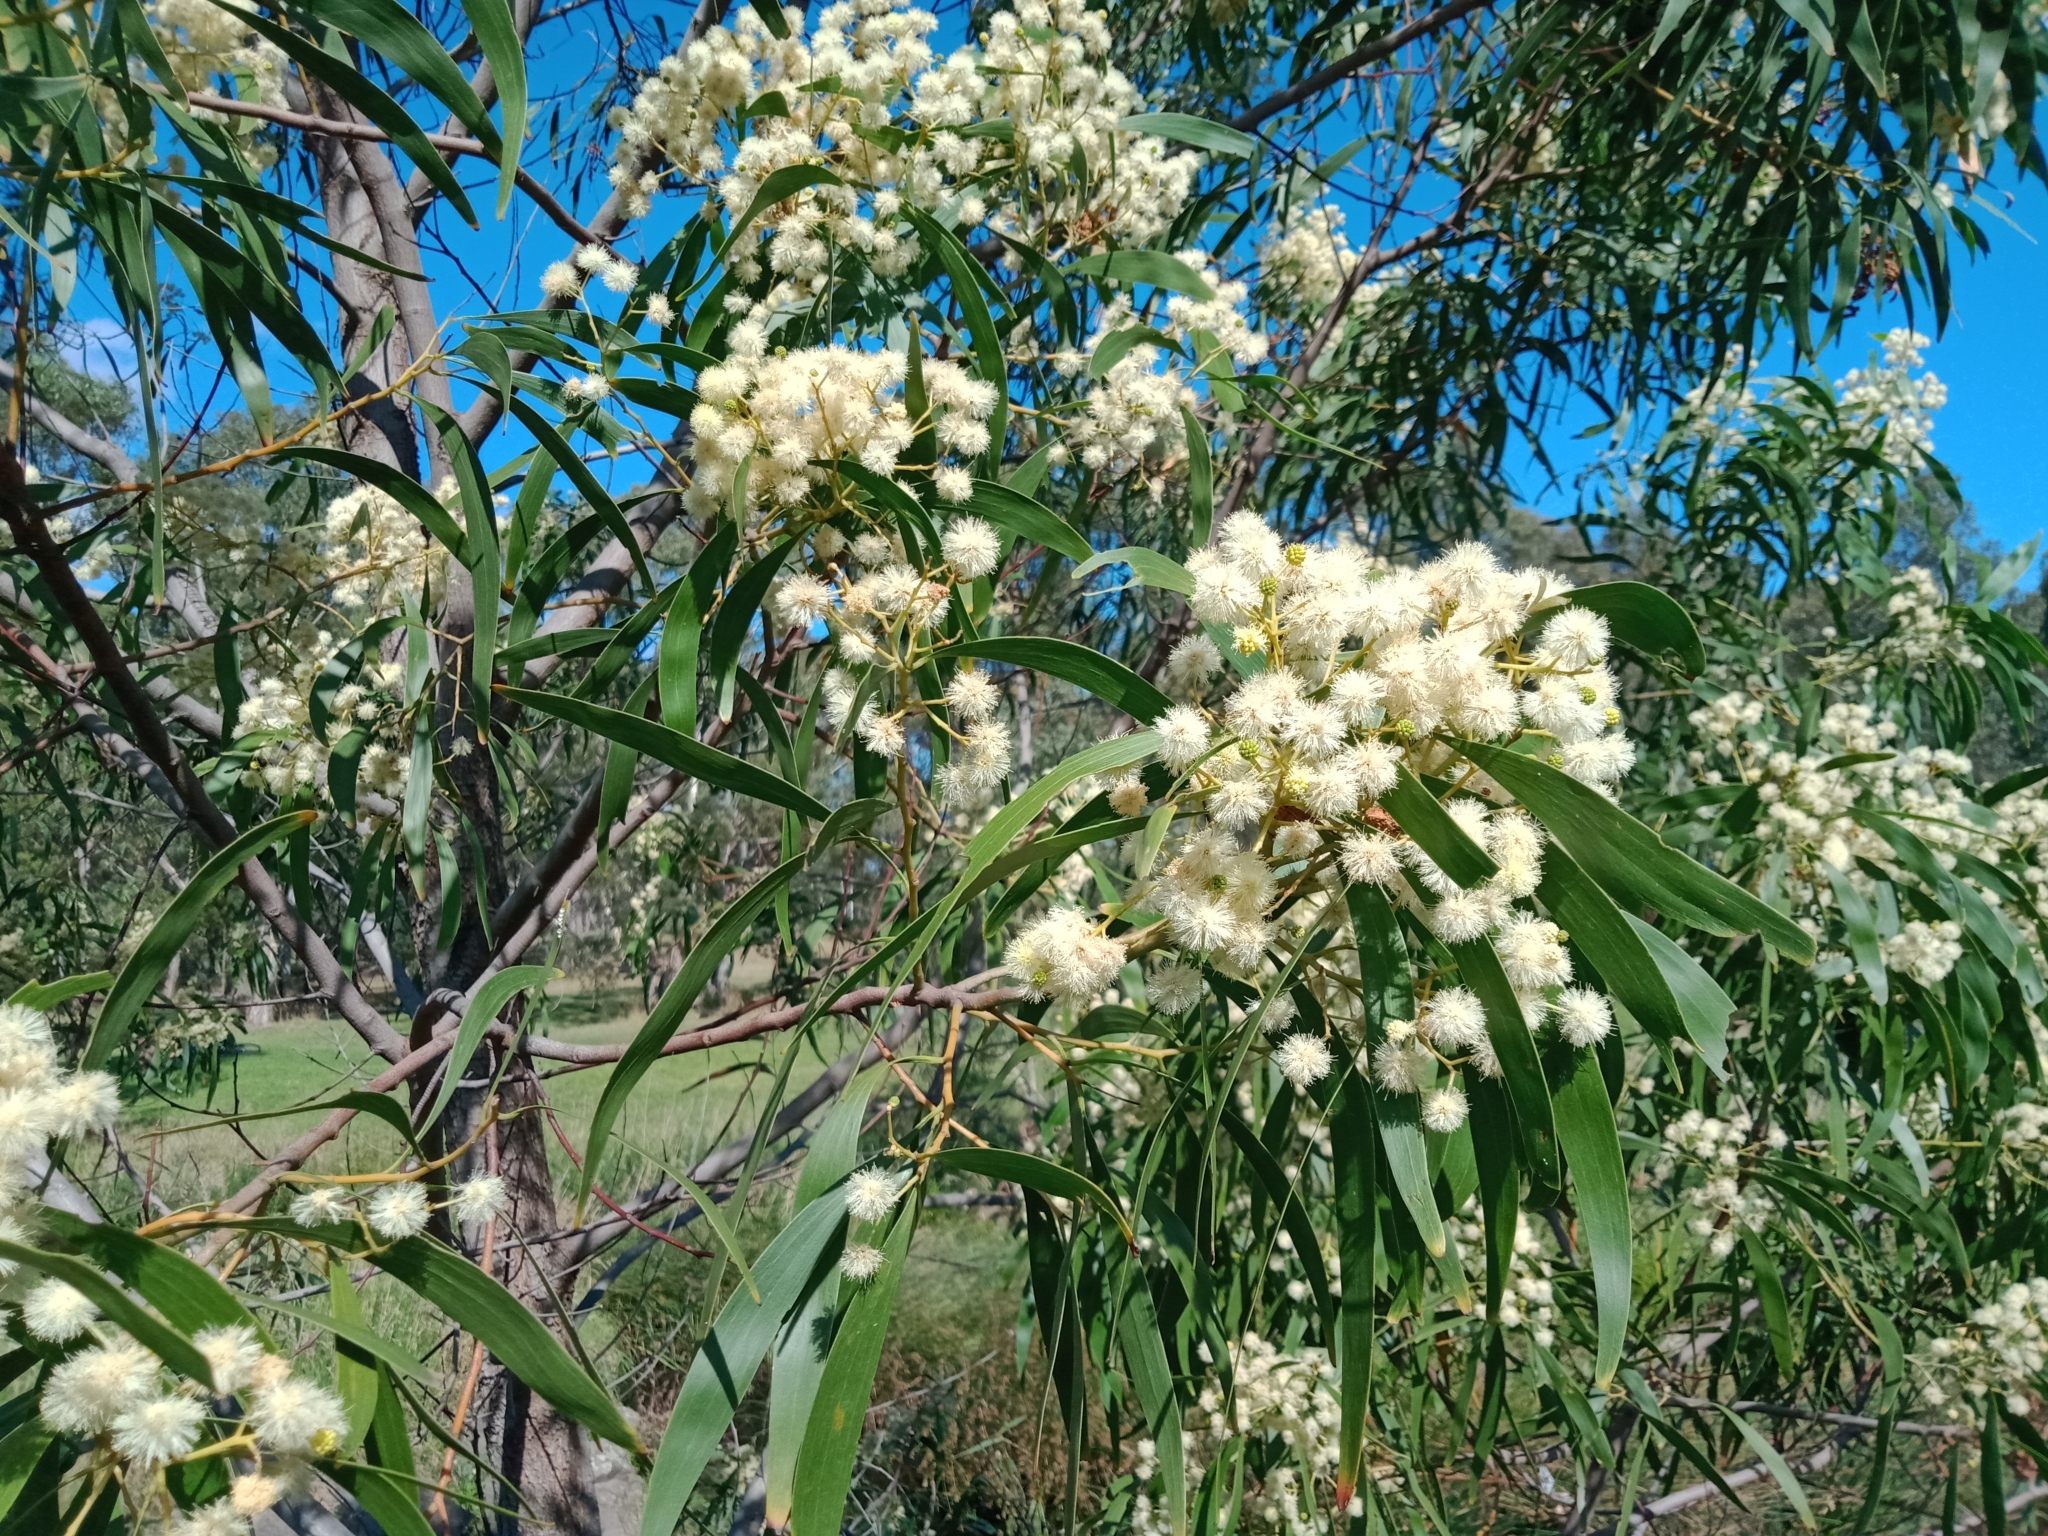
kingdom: Plantae
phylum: Tracheophyta
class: Magnoliopsida
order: Fabales
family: Fabaceae
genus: Acacia
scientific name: Acacia implexa
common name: Black wattle
